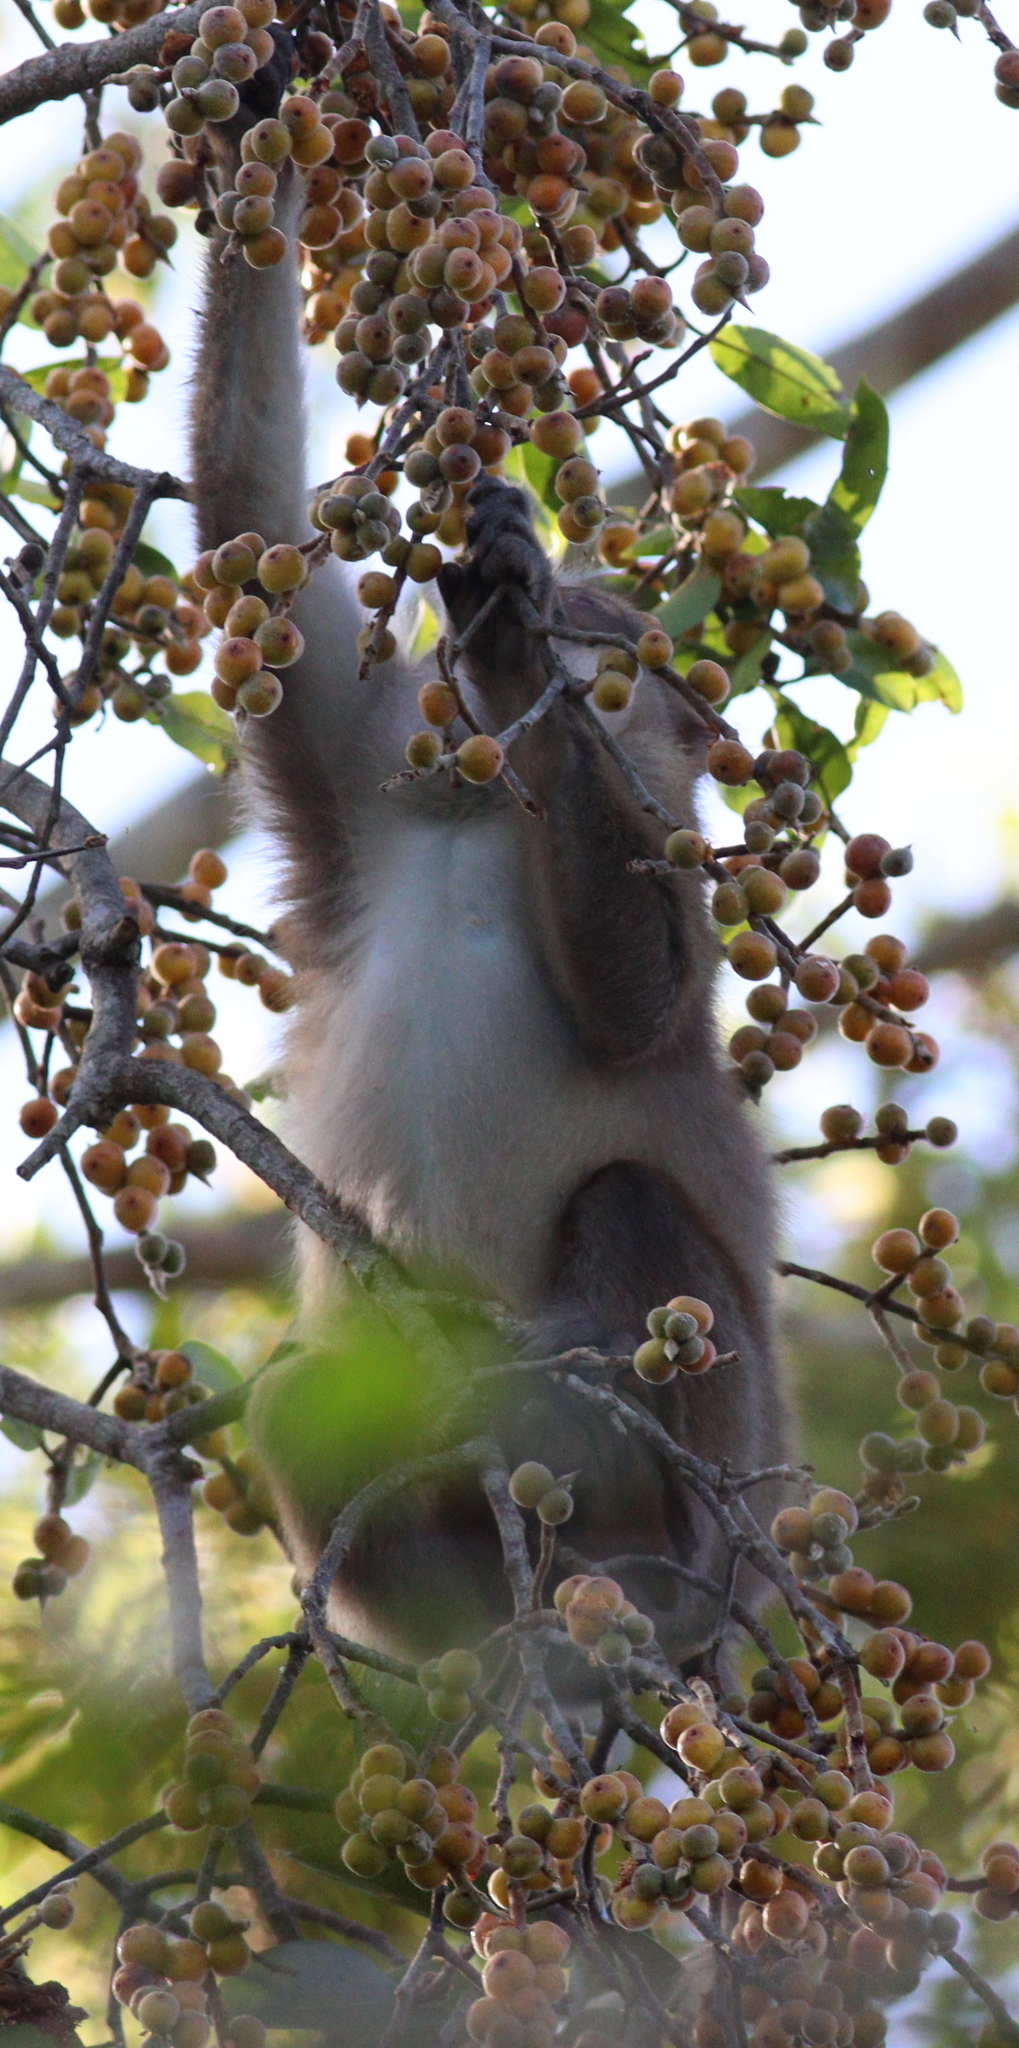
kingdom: Animalia
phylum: Chordata
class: Mammalia
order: Primates
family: Cercopithecidae
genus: Macaca
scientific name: Macaca assamensis
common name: Assam macaque
